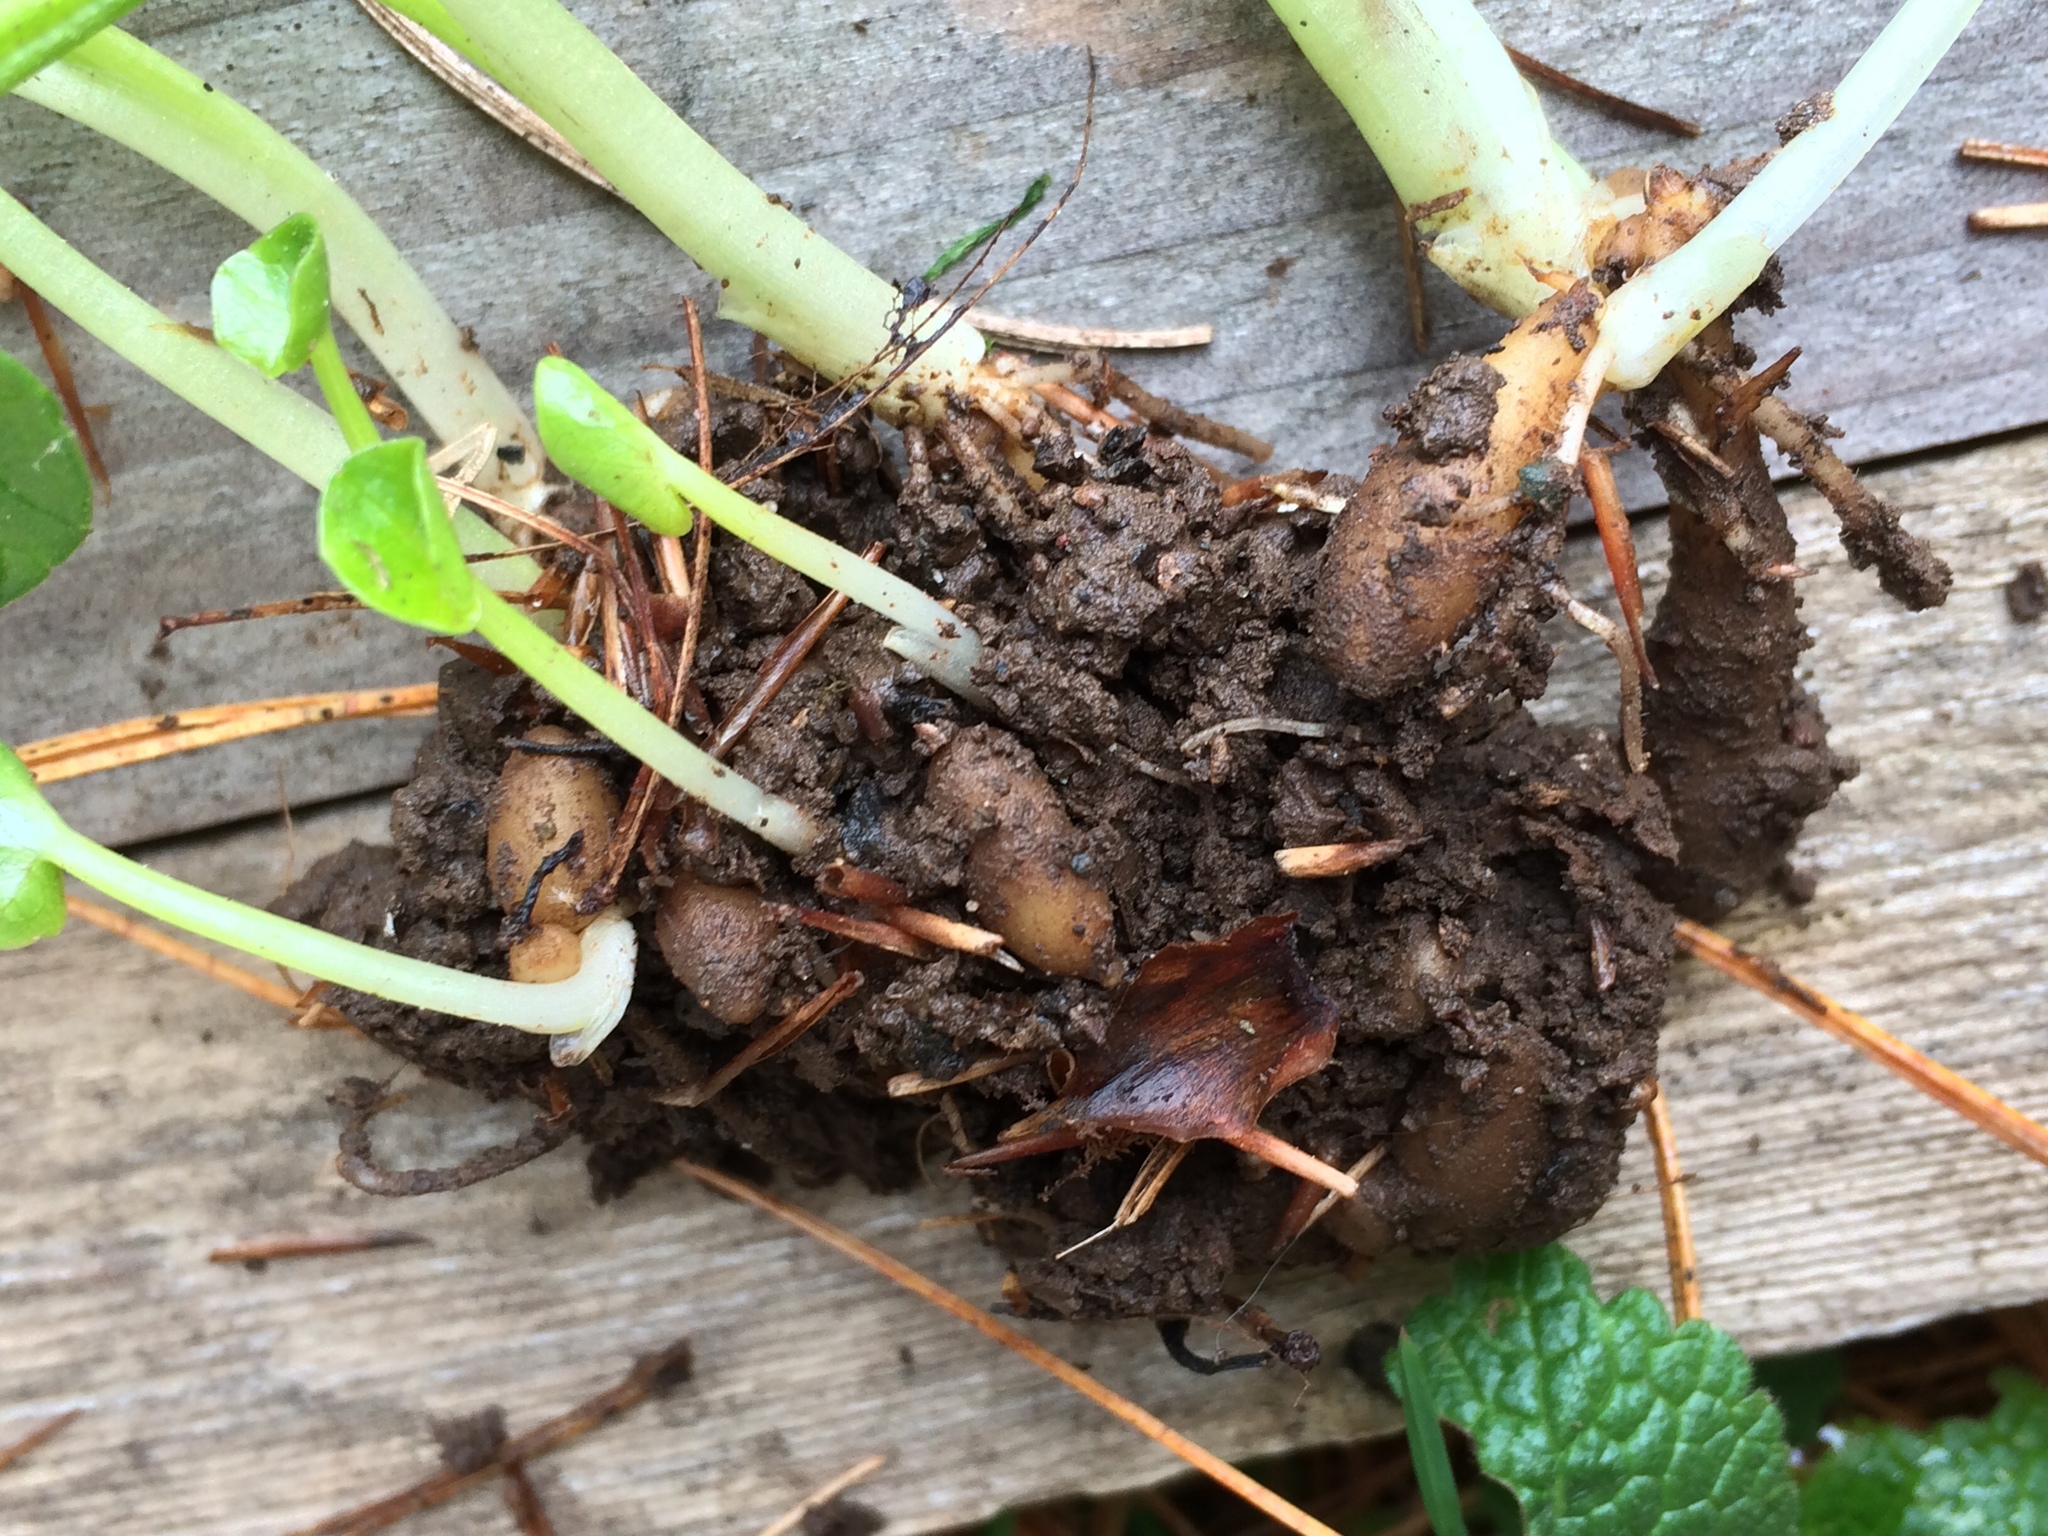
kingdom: Plantae
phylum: Tracheophyta
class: Magnoliopsida
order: Ranunculales
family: Ranunculaceae
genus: Ficaria
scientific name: Ficaria verna
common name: Lesser celandine
